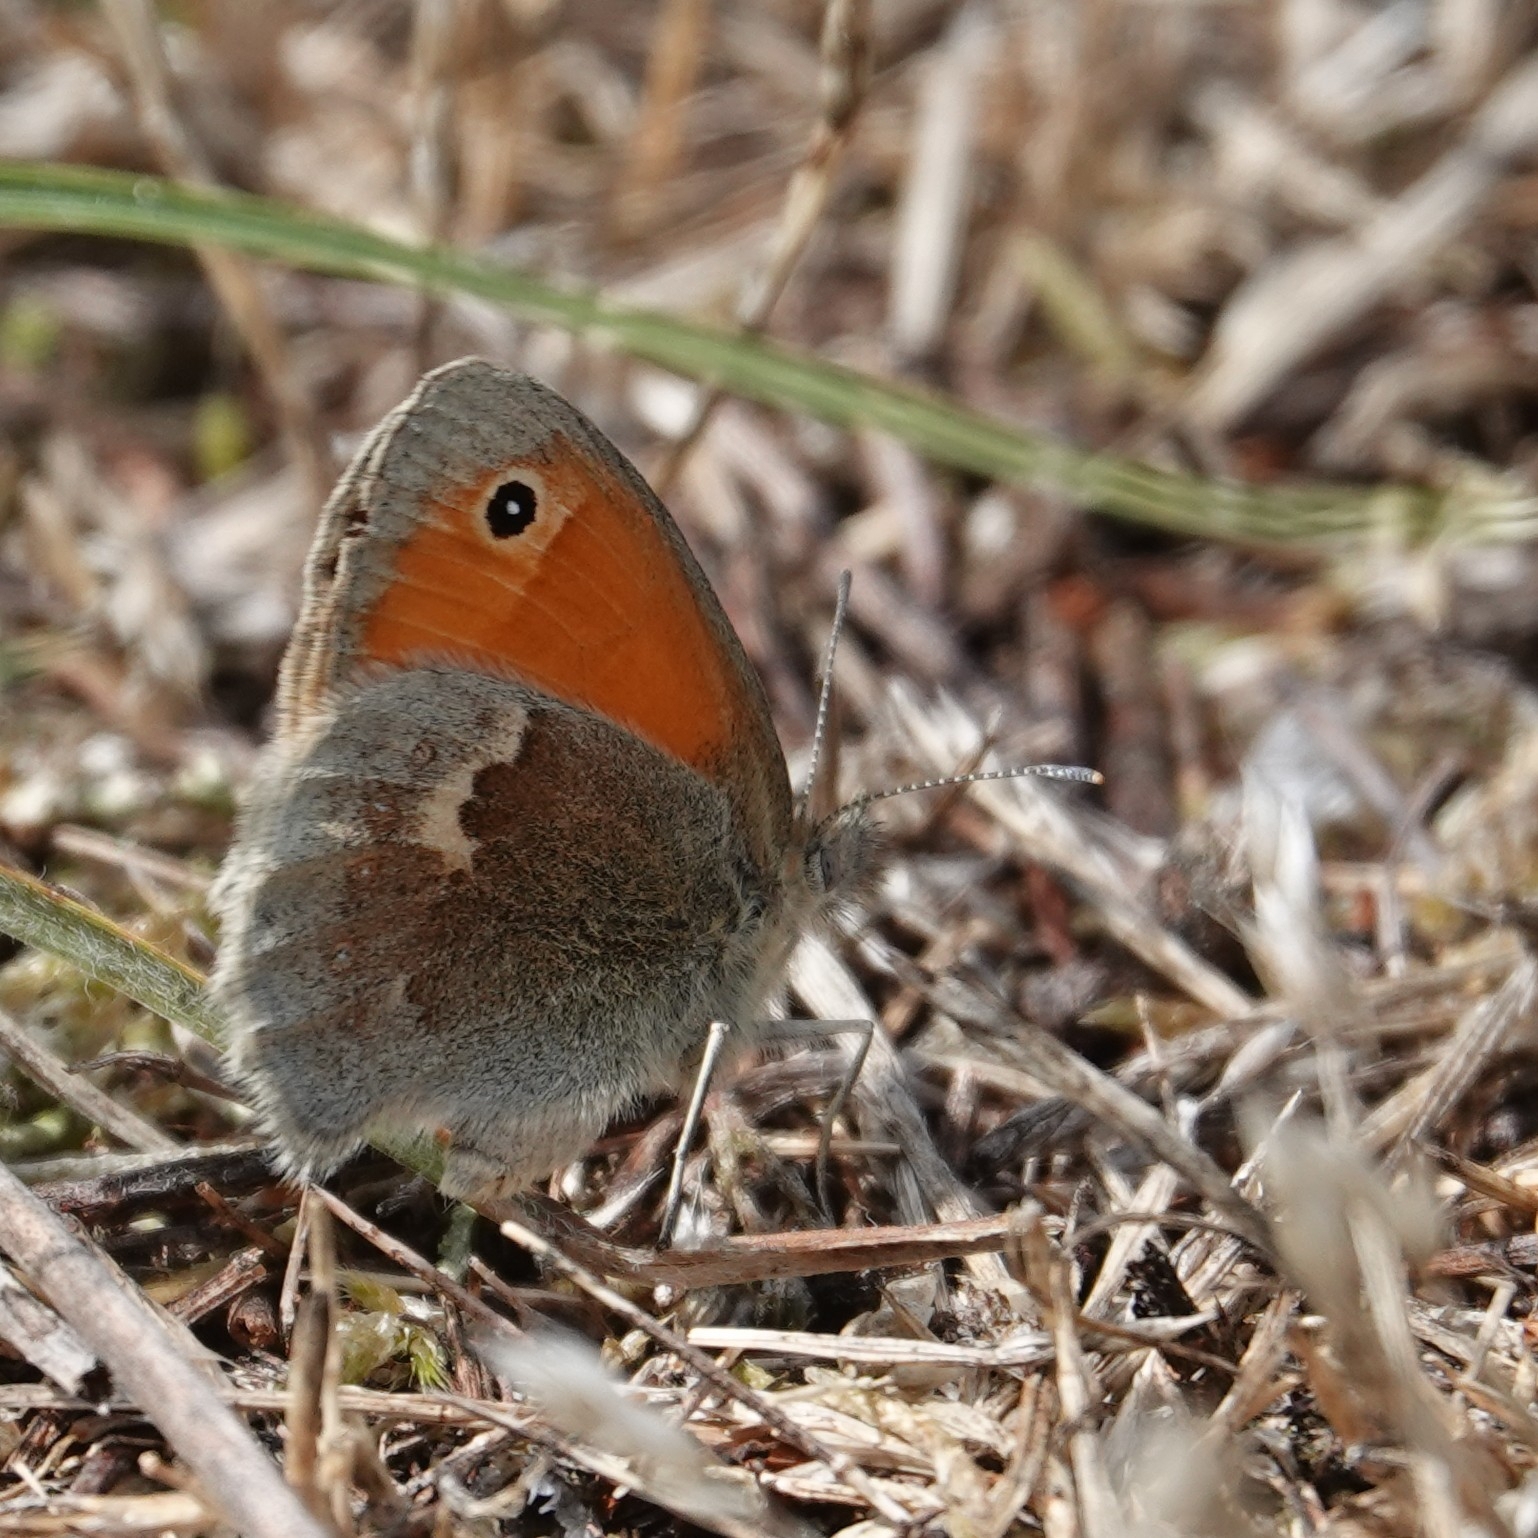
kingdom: Animalia
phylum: Arthropoda
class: Insecta
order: Lepidoptera
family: Nymphalidae
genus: Coenonympha
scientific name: Coenonympha pamphilus
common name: Small heath
